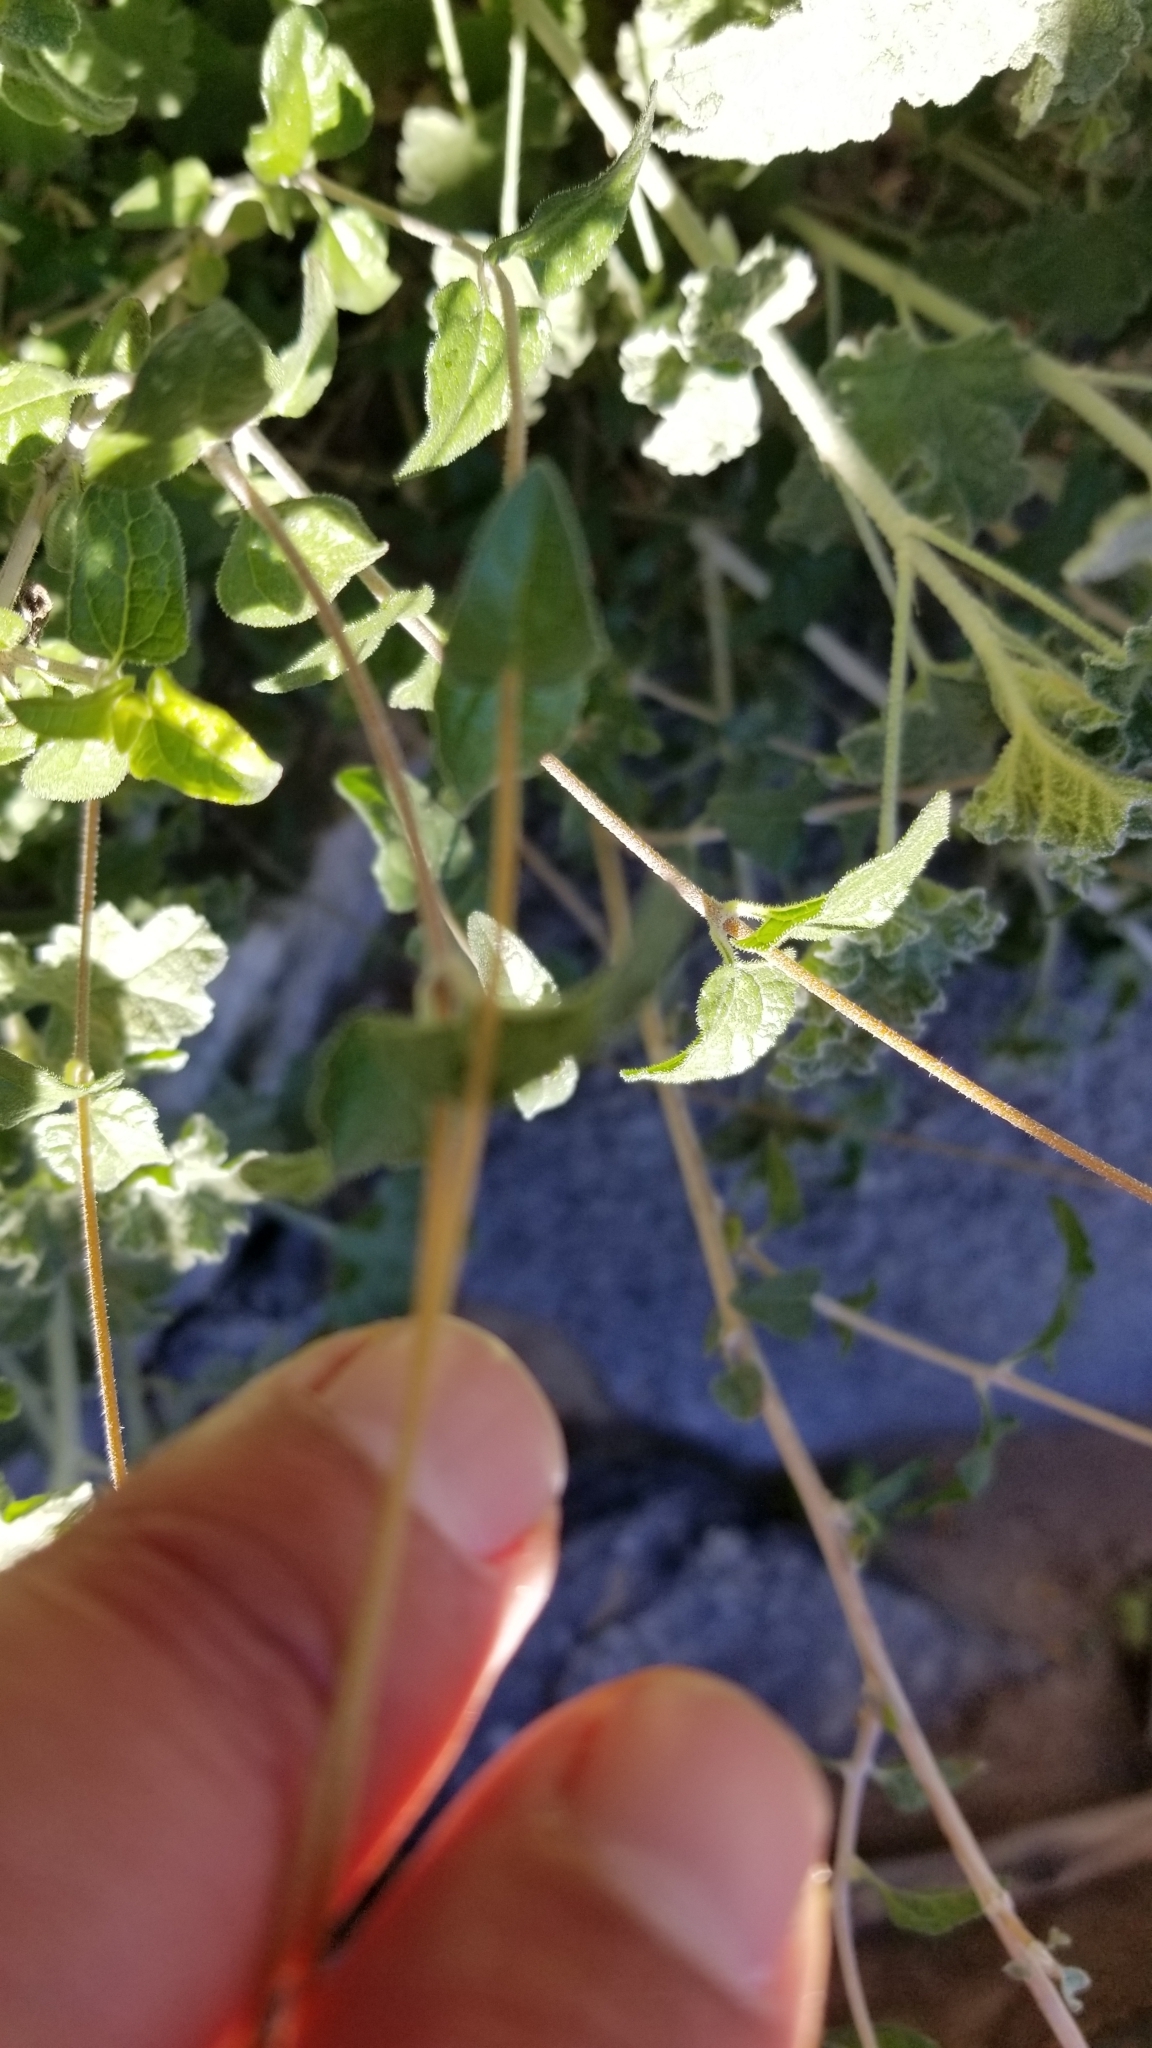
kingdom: Plantae
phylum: Tracheophyta
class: Magnoliopsida
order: Asterales
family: Asteraceae
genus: Bahiopsis
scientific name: Bahiopsis parishii
